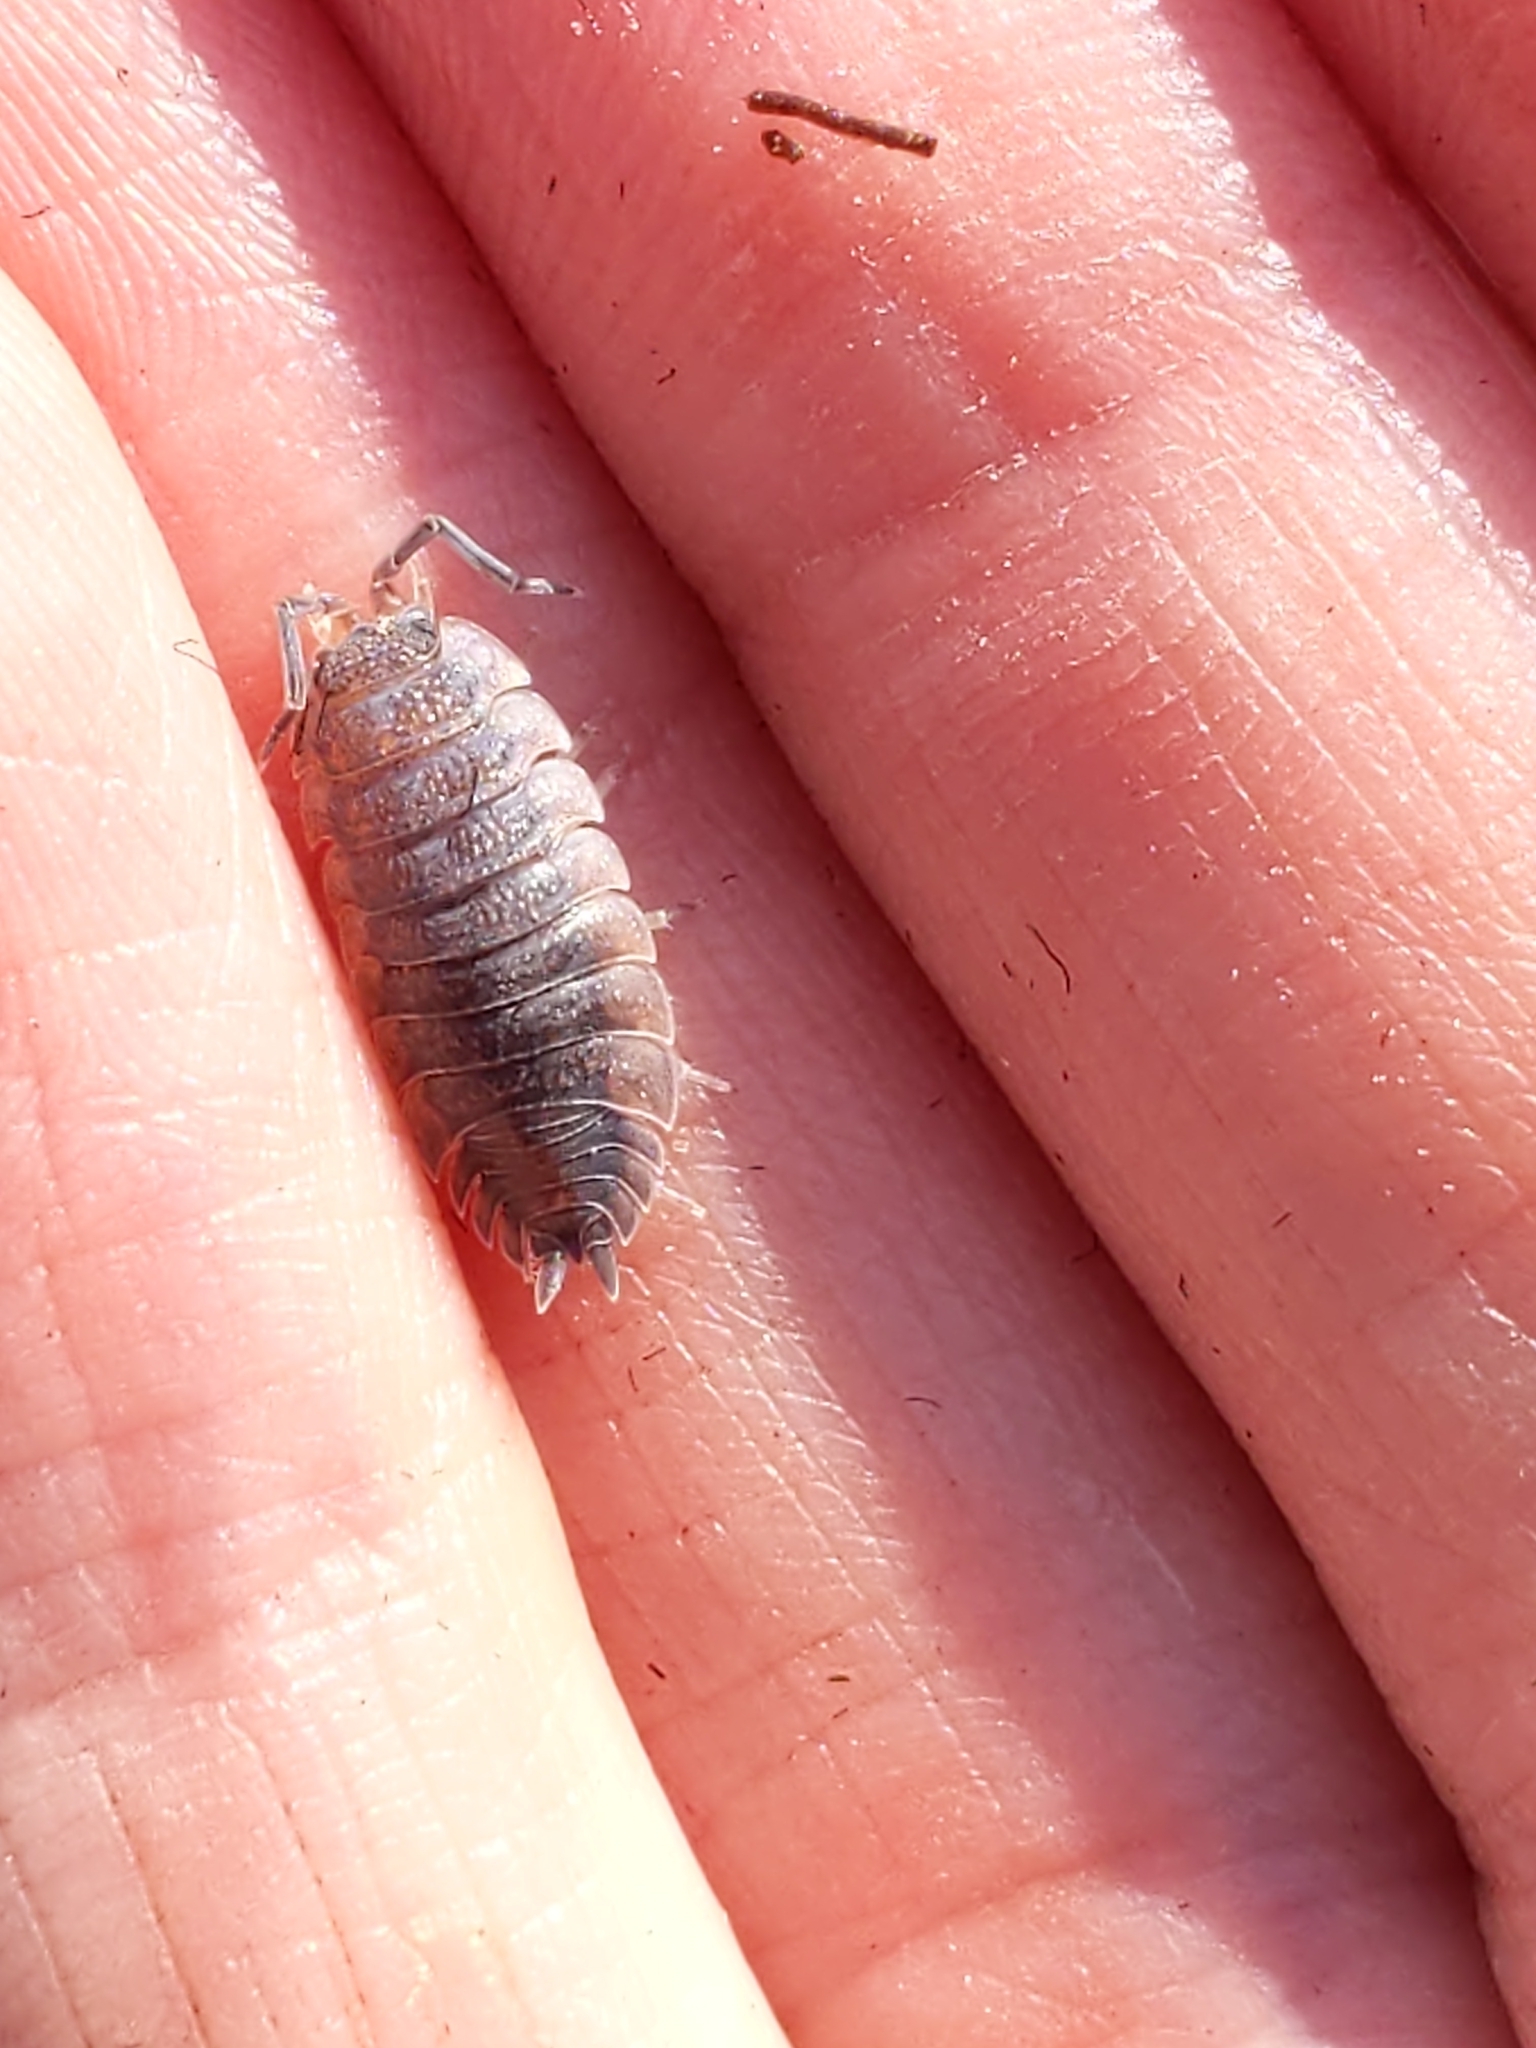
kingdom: Animalia
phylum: Arthropoda
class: Malacostraca
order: Isopoda
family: Porcellionidae
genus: Porcellio
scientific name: Porcellio scaber
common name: Common rough woodlouse
